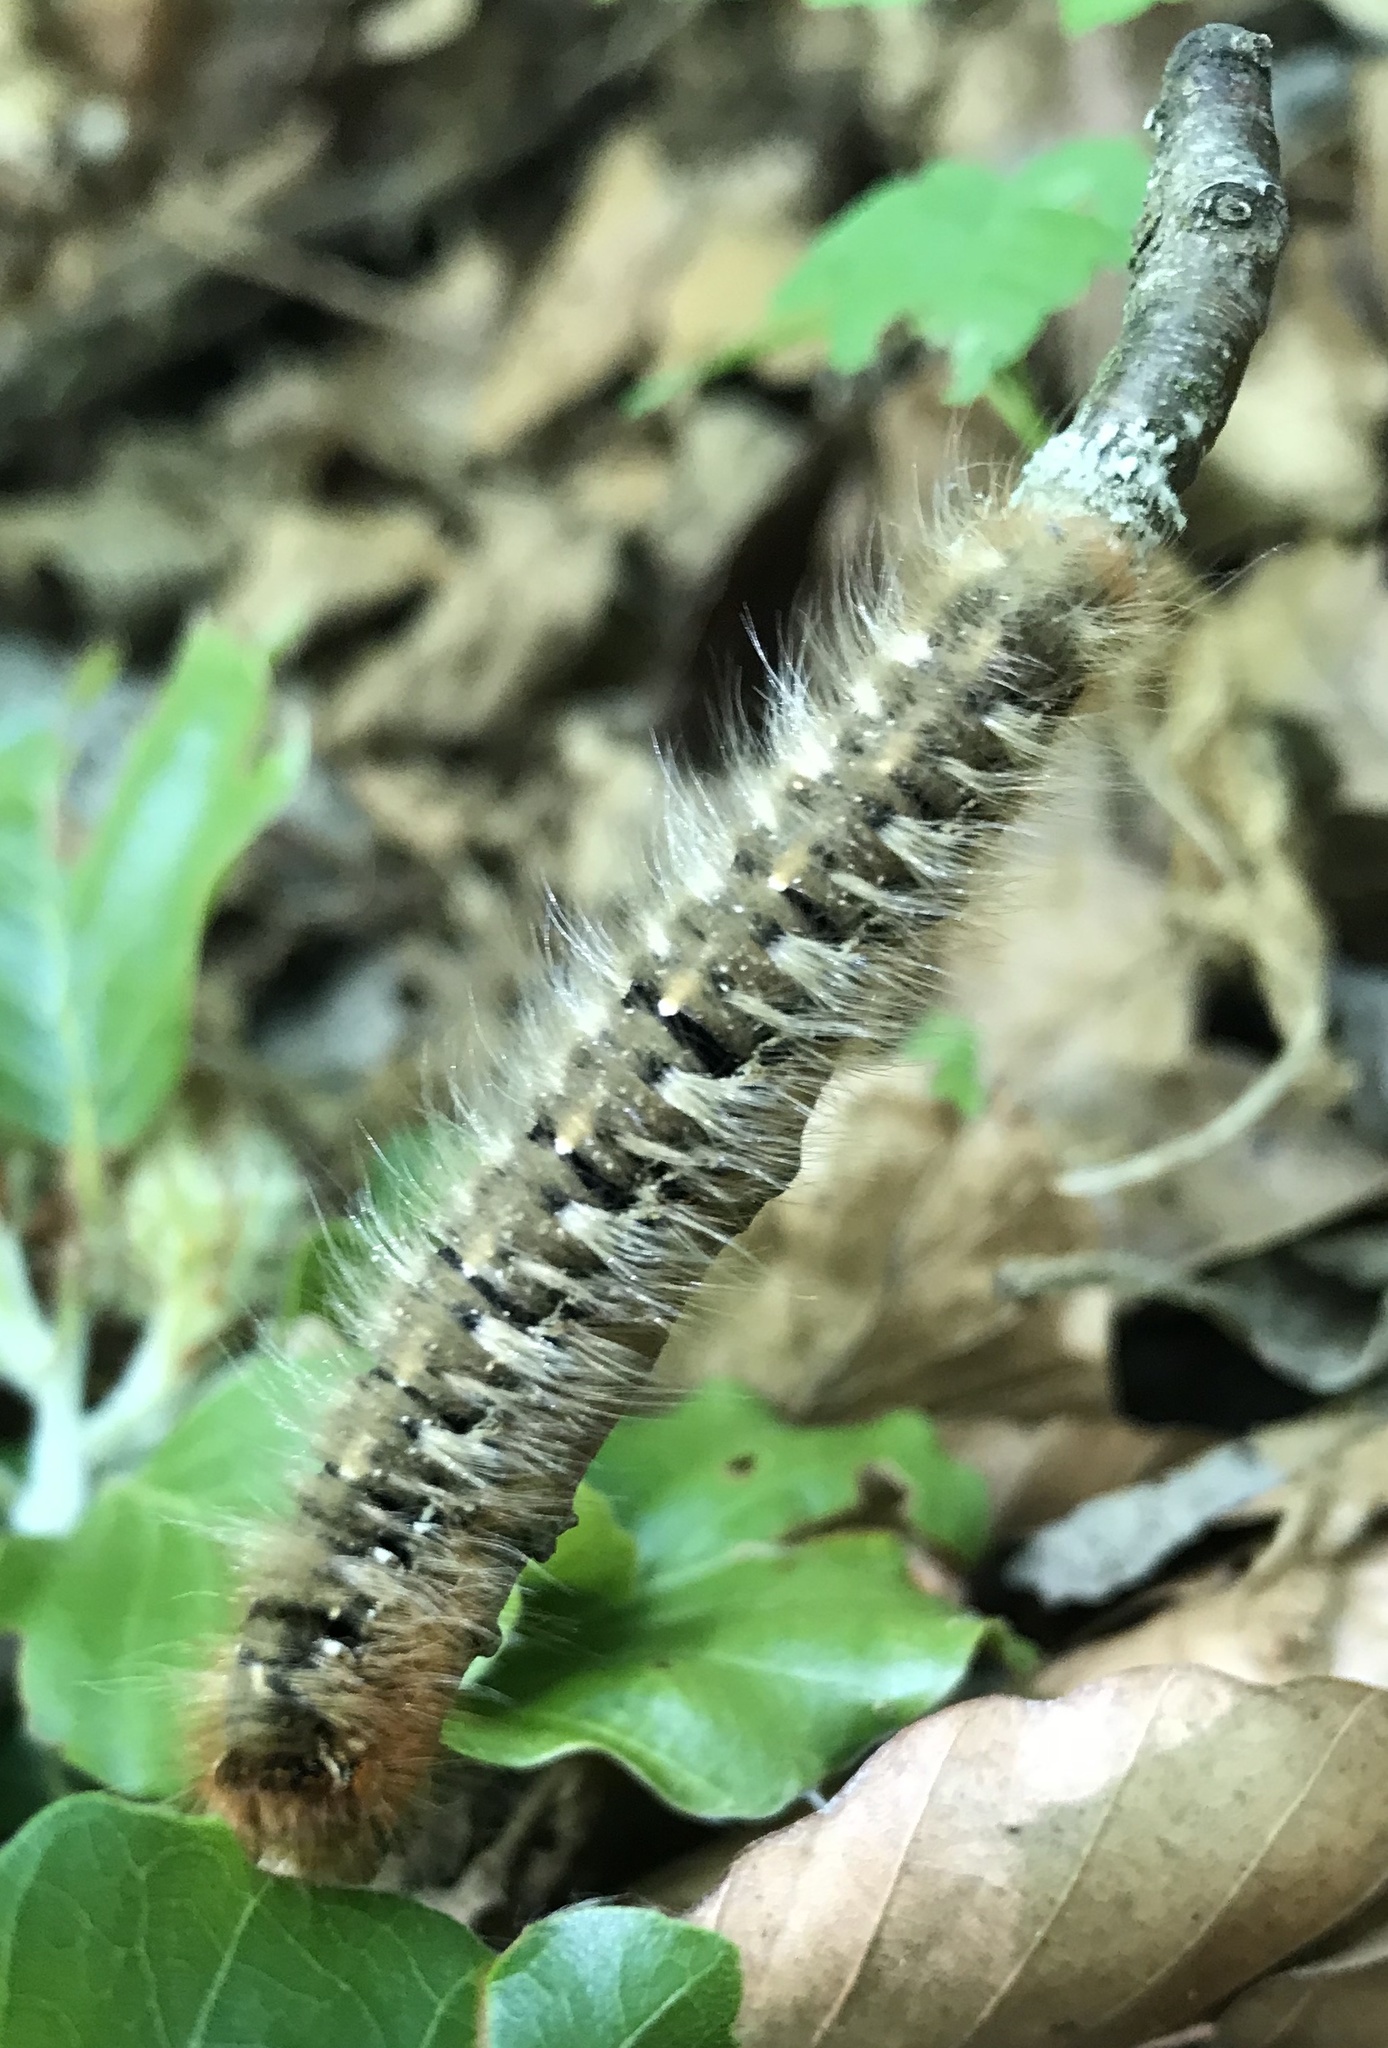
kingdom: Animalia
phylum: Arthropoda
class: Insecta
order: Lepidoptera
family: Lasiocampidae
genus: Lasiocampa
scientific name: Lasiocampa quercus
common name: Oak eggar
